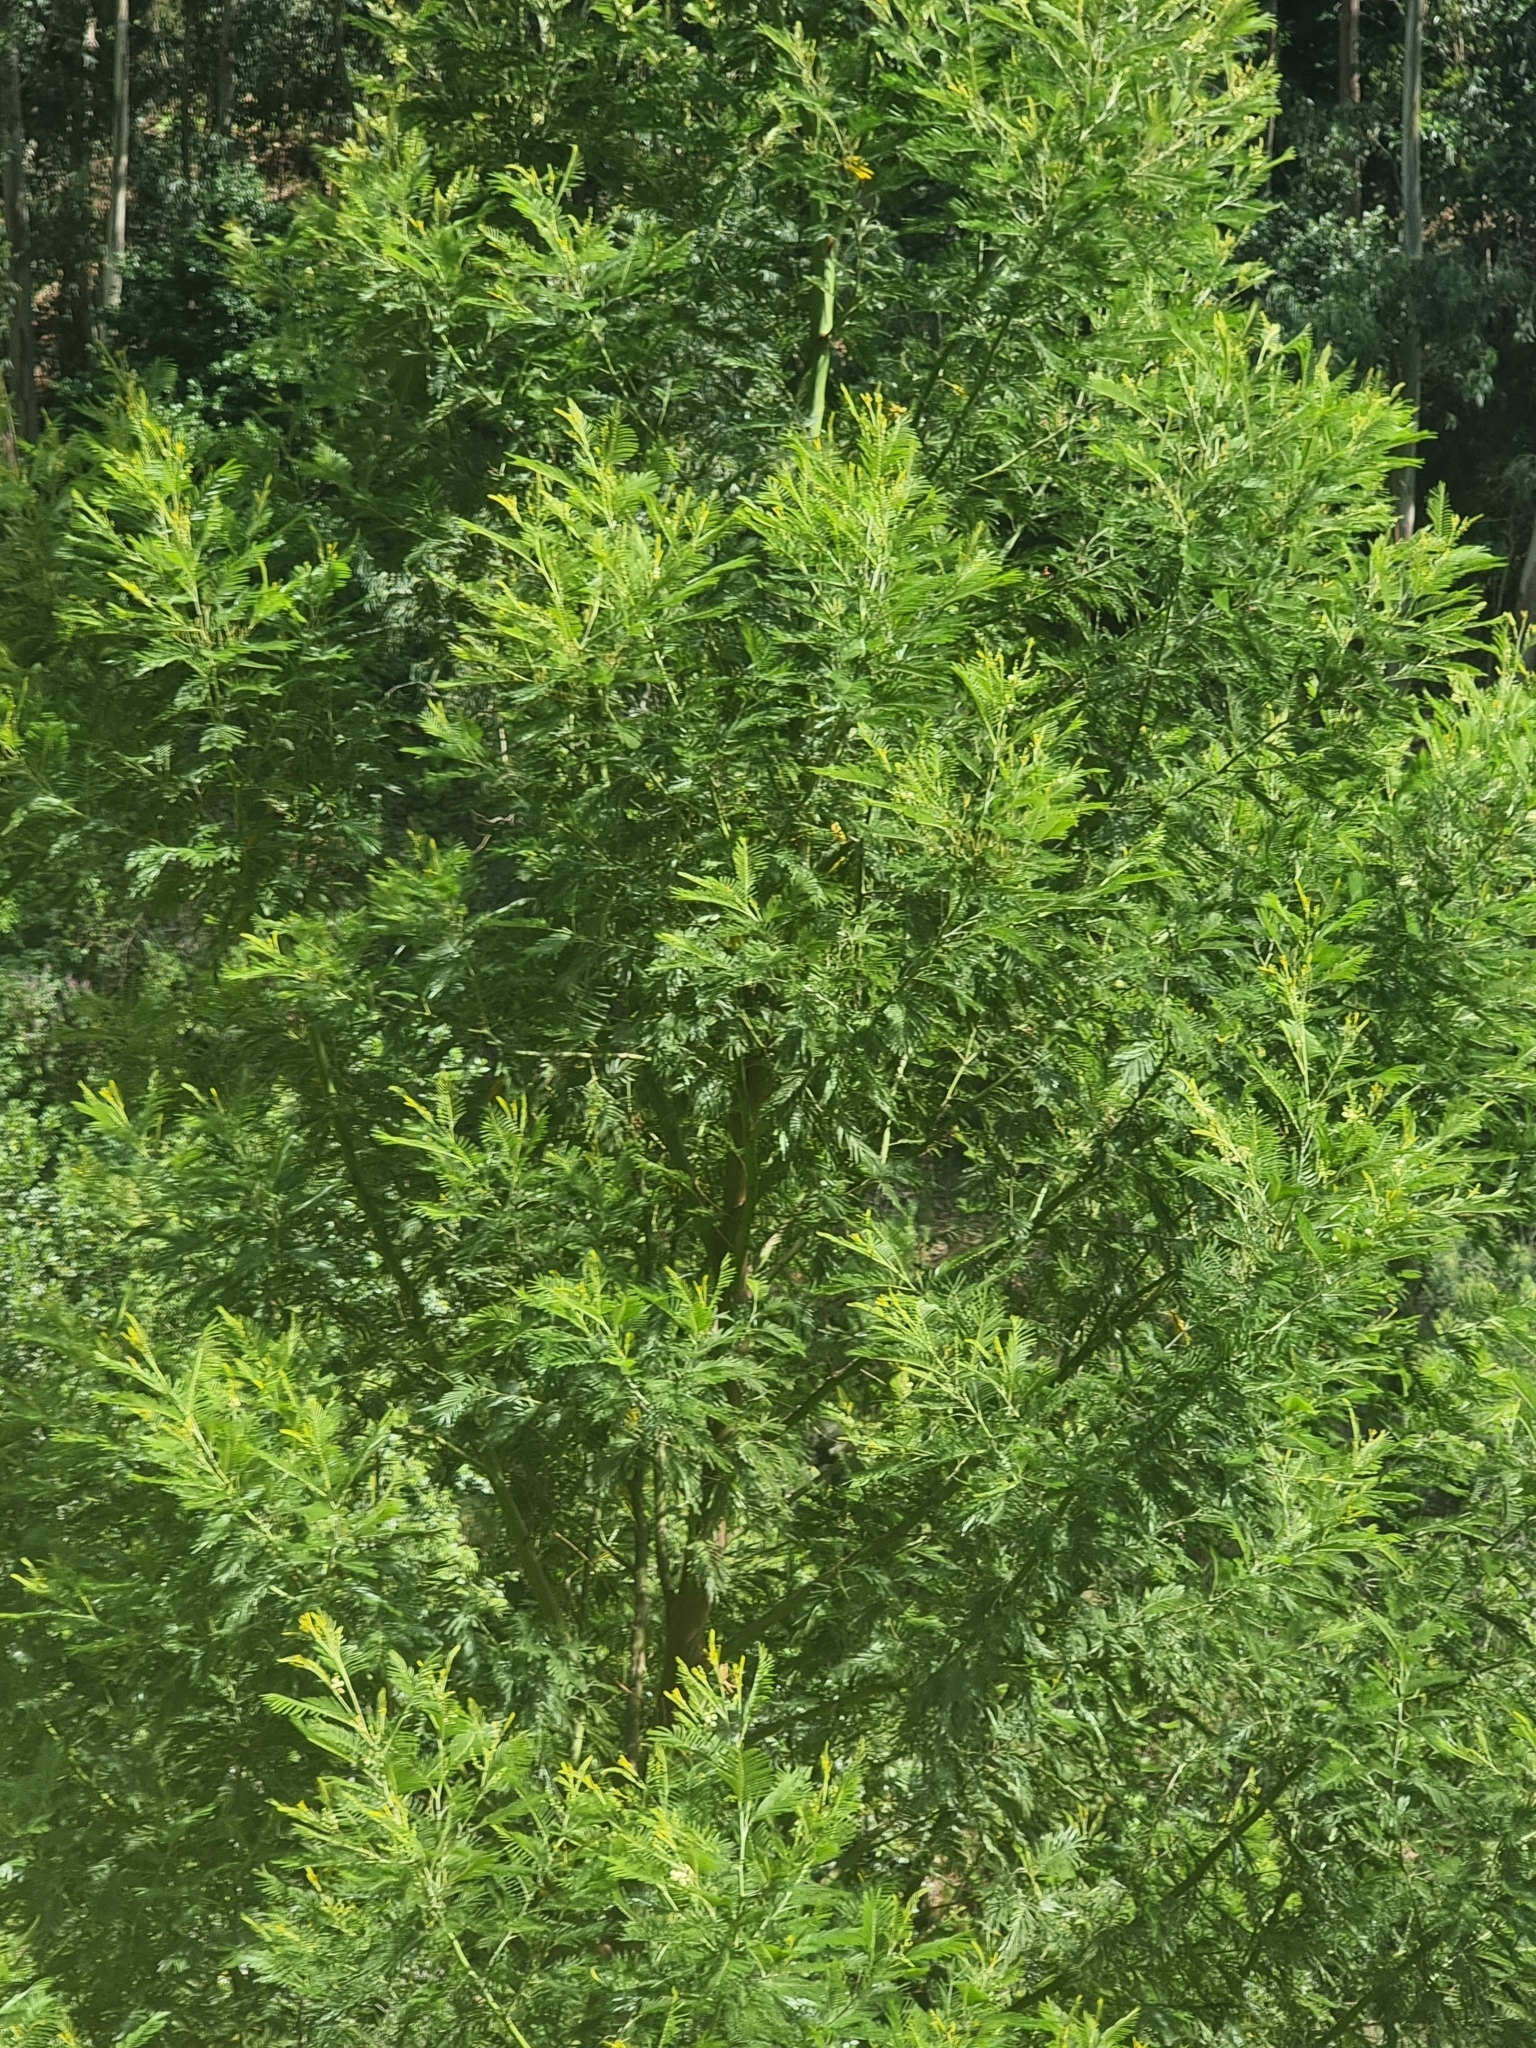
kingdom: Plantae
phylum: Tracheophyta
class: Magnoliopsida
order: Fabales
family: Fabaceae
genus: Acacia
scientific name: Acacia mearnsii
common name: Black wattle
